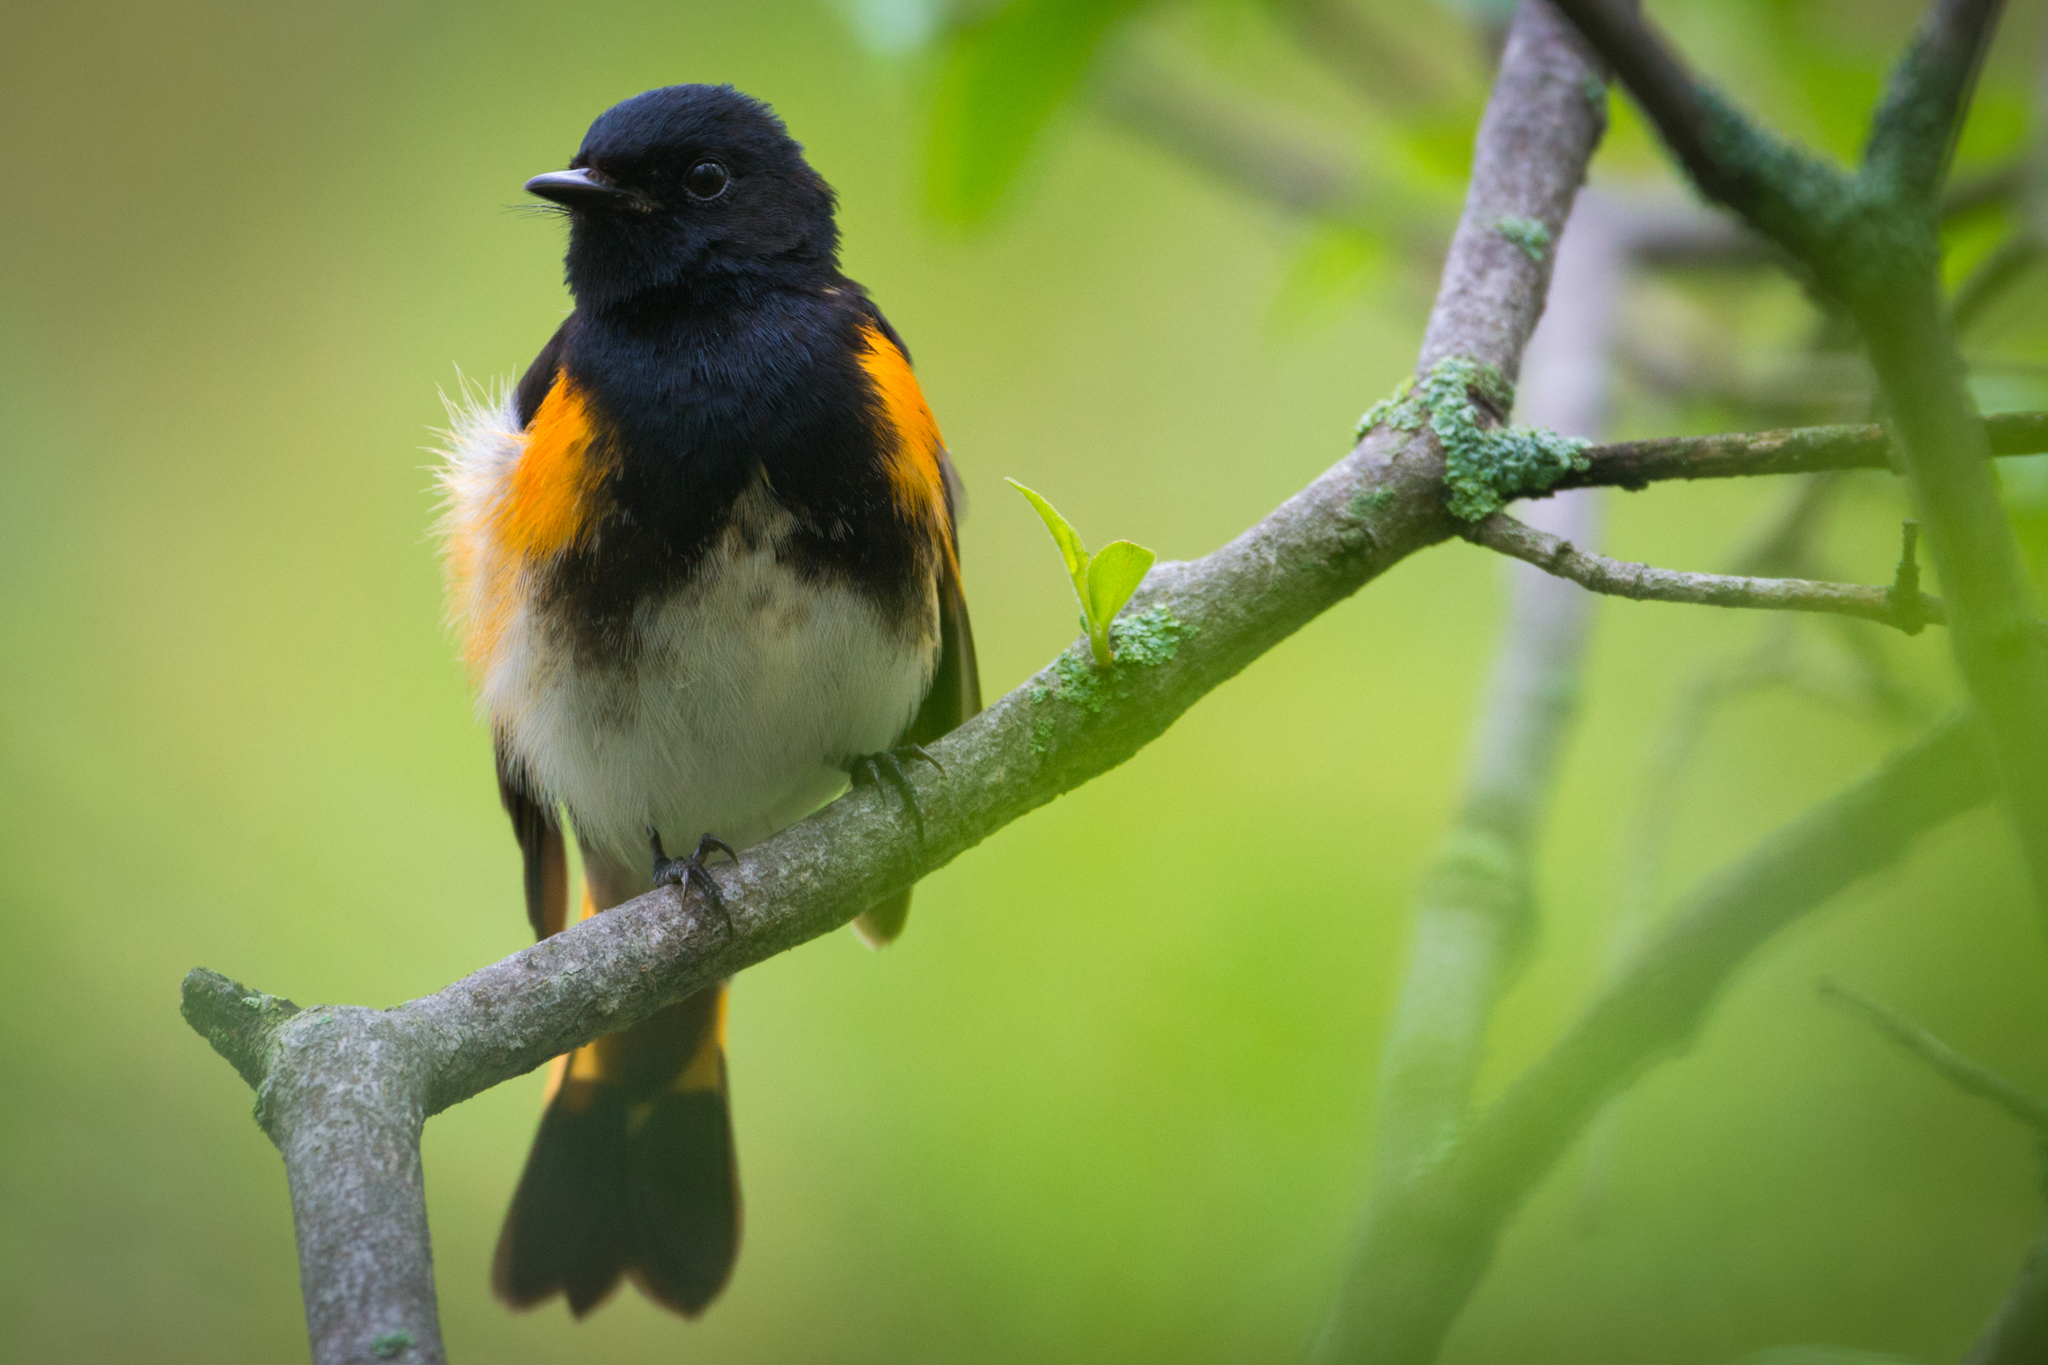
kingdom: Animalia
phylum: Chordata
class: Aves
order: Passeriformes
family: Parulidae
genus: Setophaga
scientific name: Setophaga ruticilla
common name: American redstart
